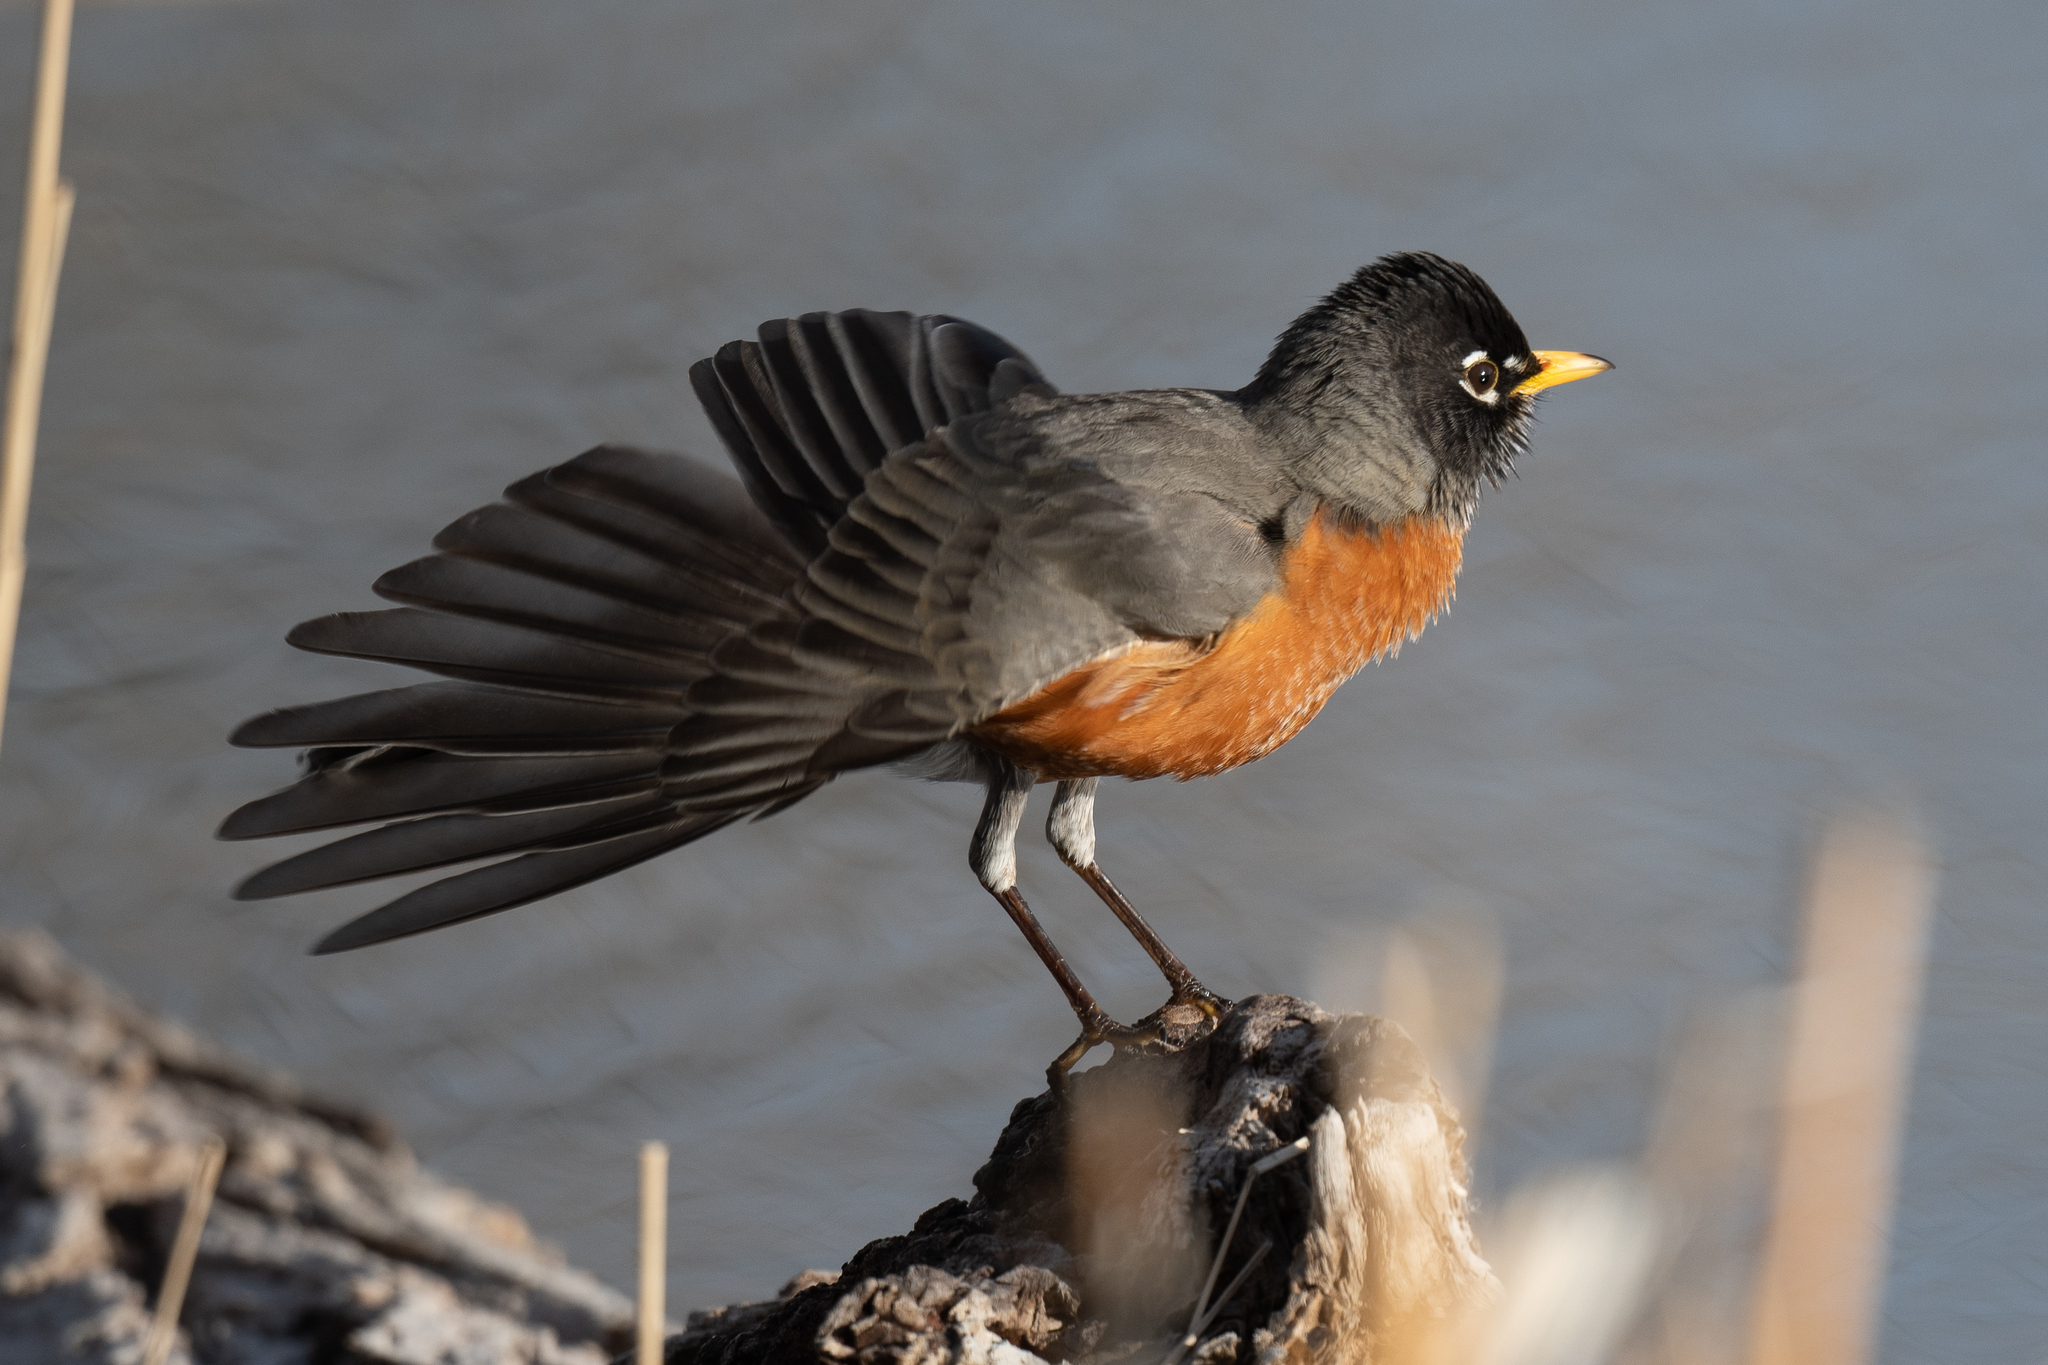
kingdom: Animalia
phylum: Chordata
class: Aves
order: Passeriformes
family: Turdidae
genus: Turdus
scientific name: Turdus migratorius
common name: American robin
